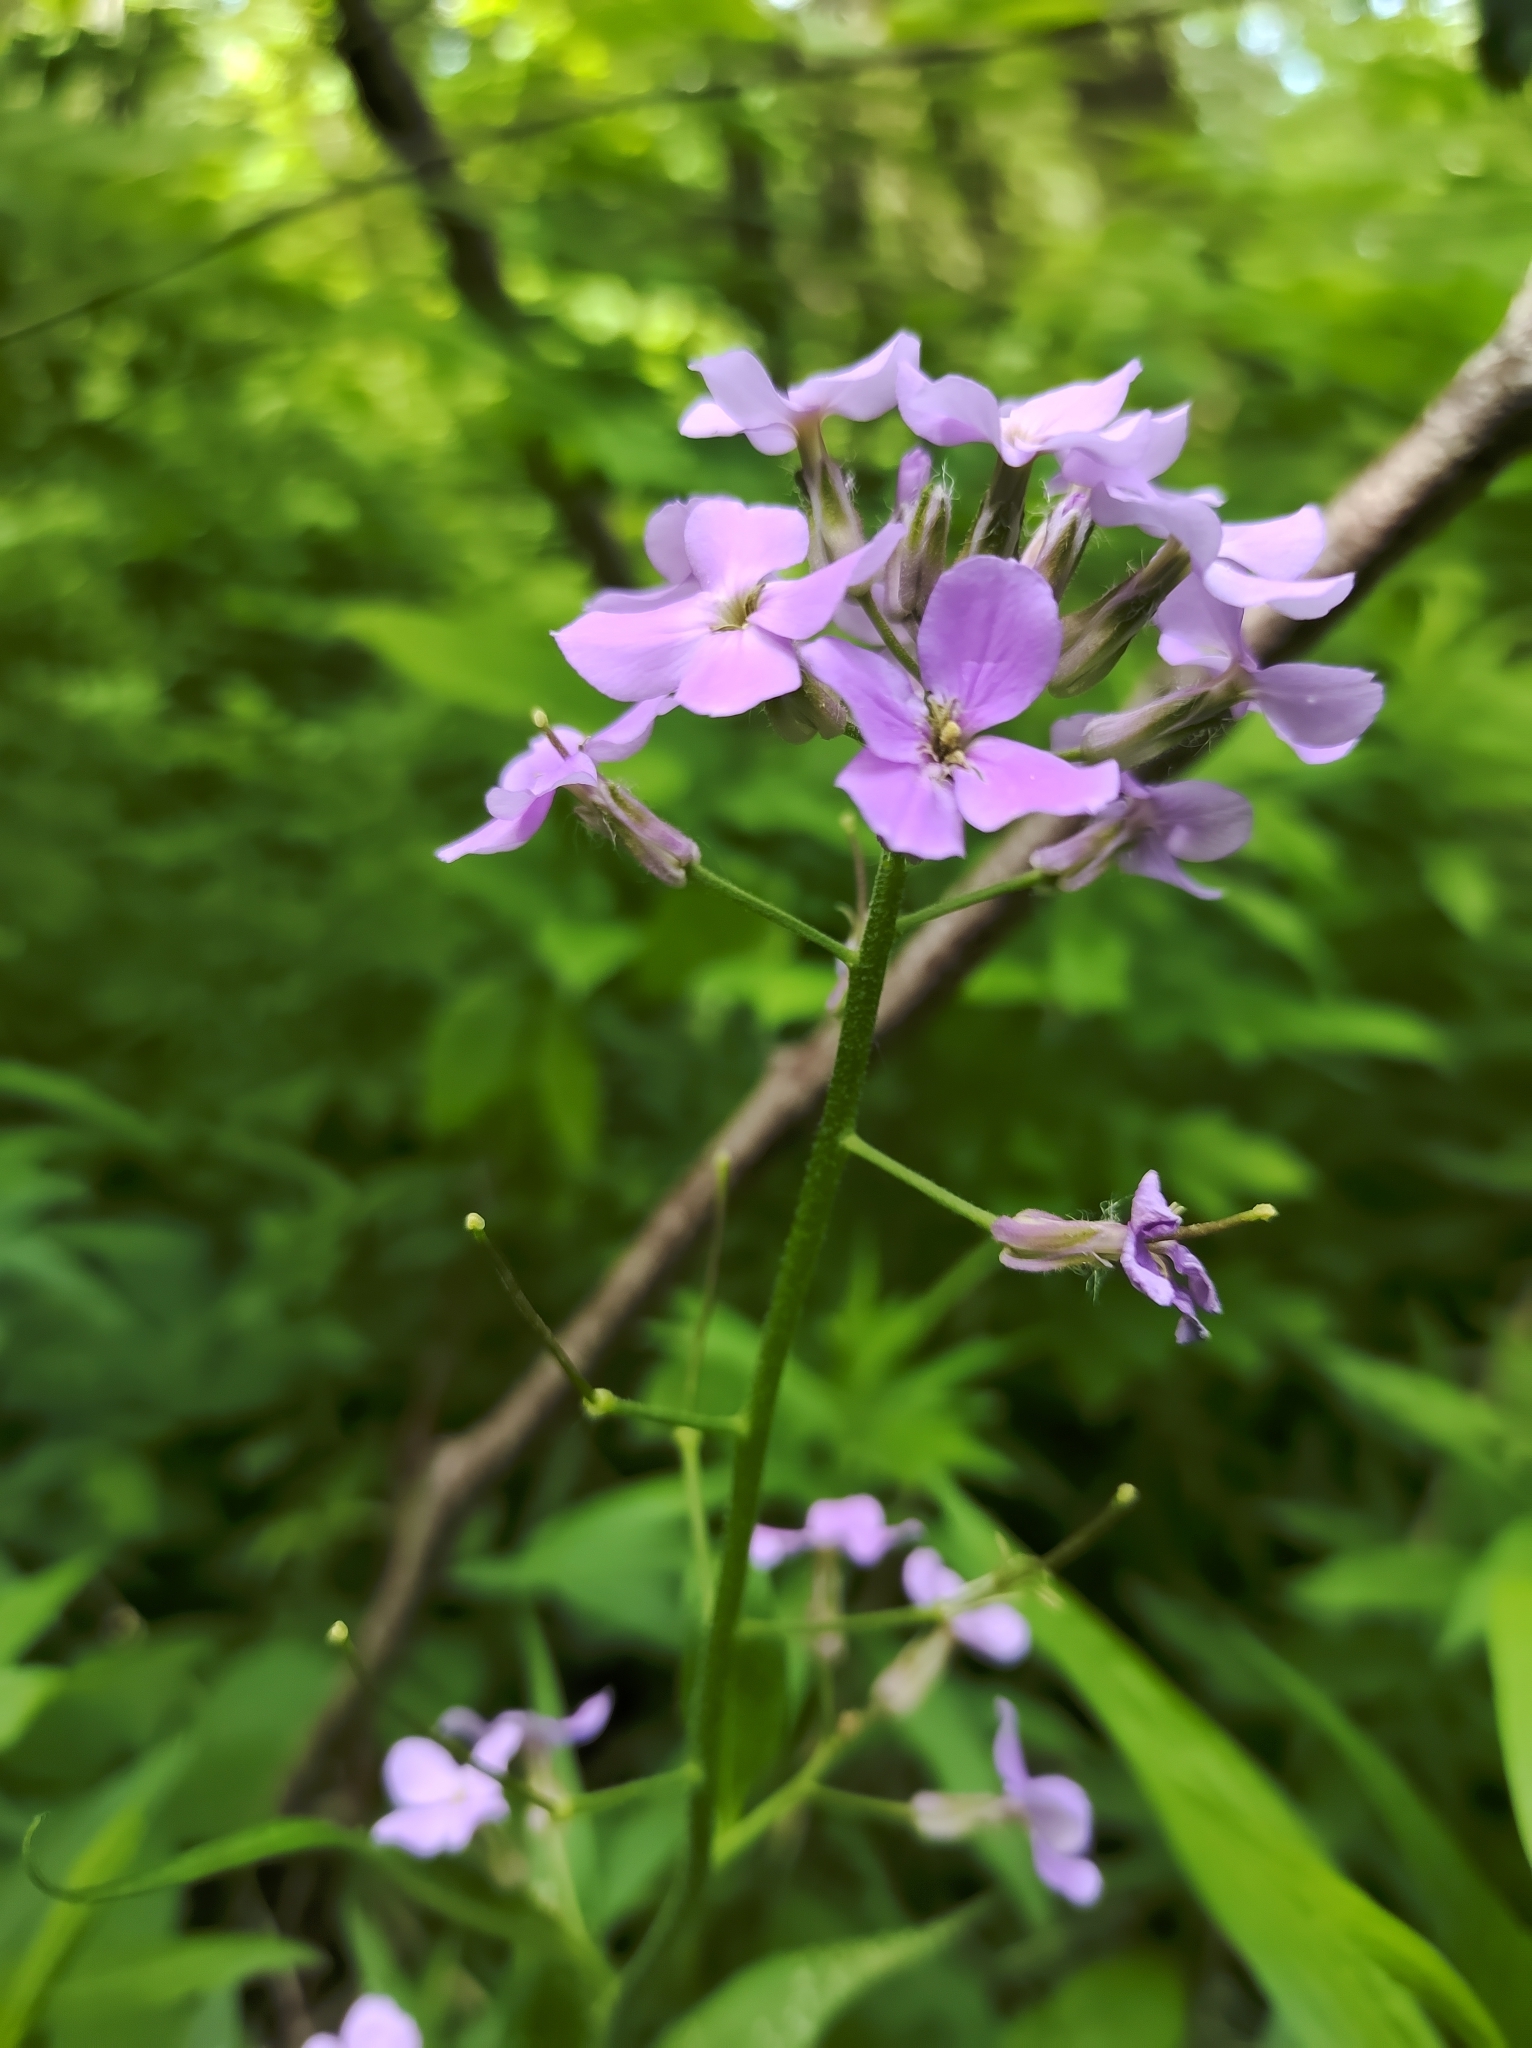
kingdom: Plantae
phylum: Tracheophyta
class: Magnoliopsida
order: Brassicales
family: Brassicaceae
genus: Hesperis
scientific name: Hesperis matronalis
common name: Dame's-violet
